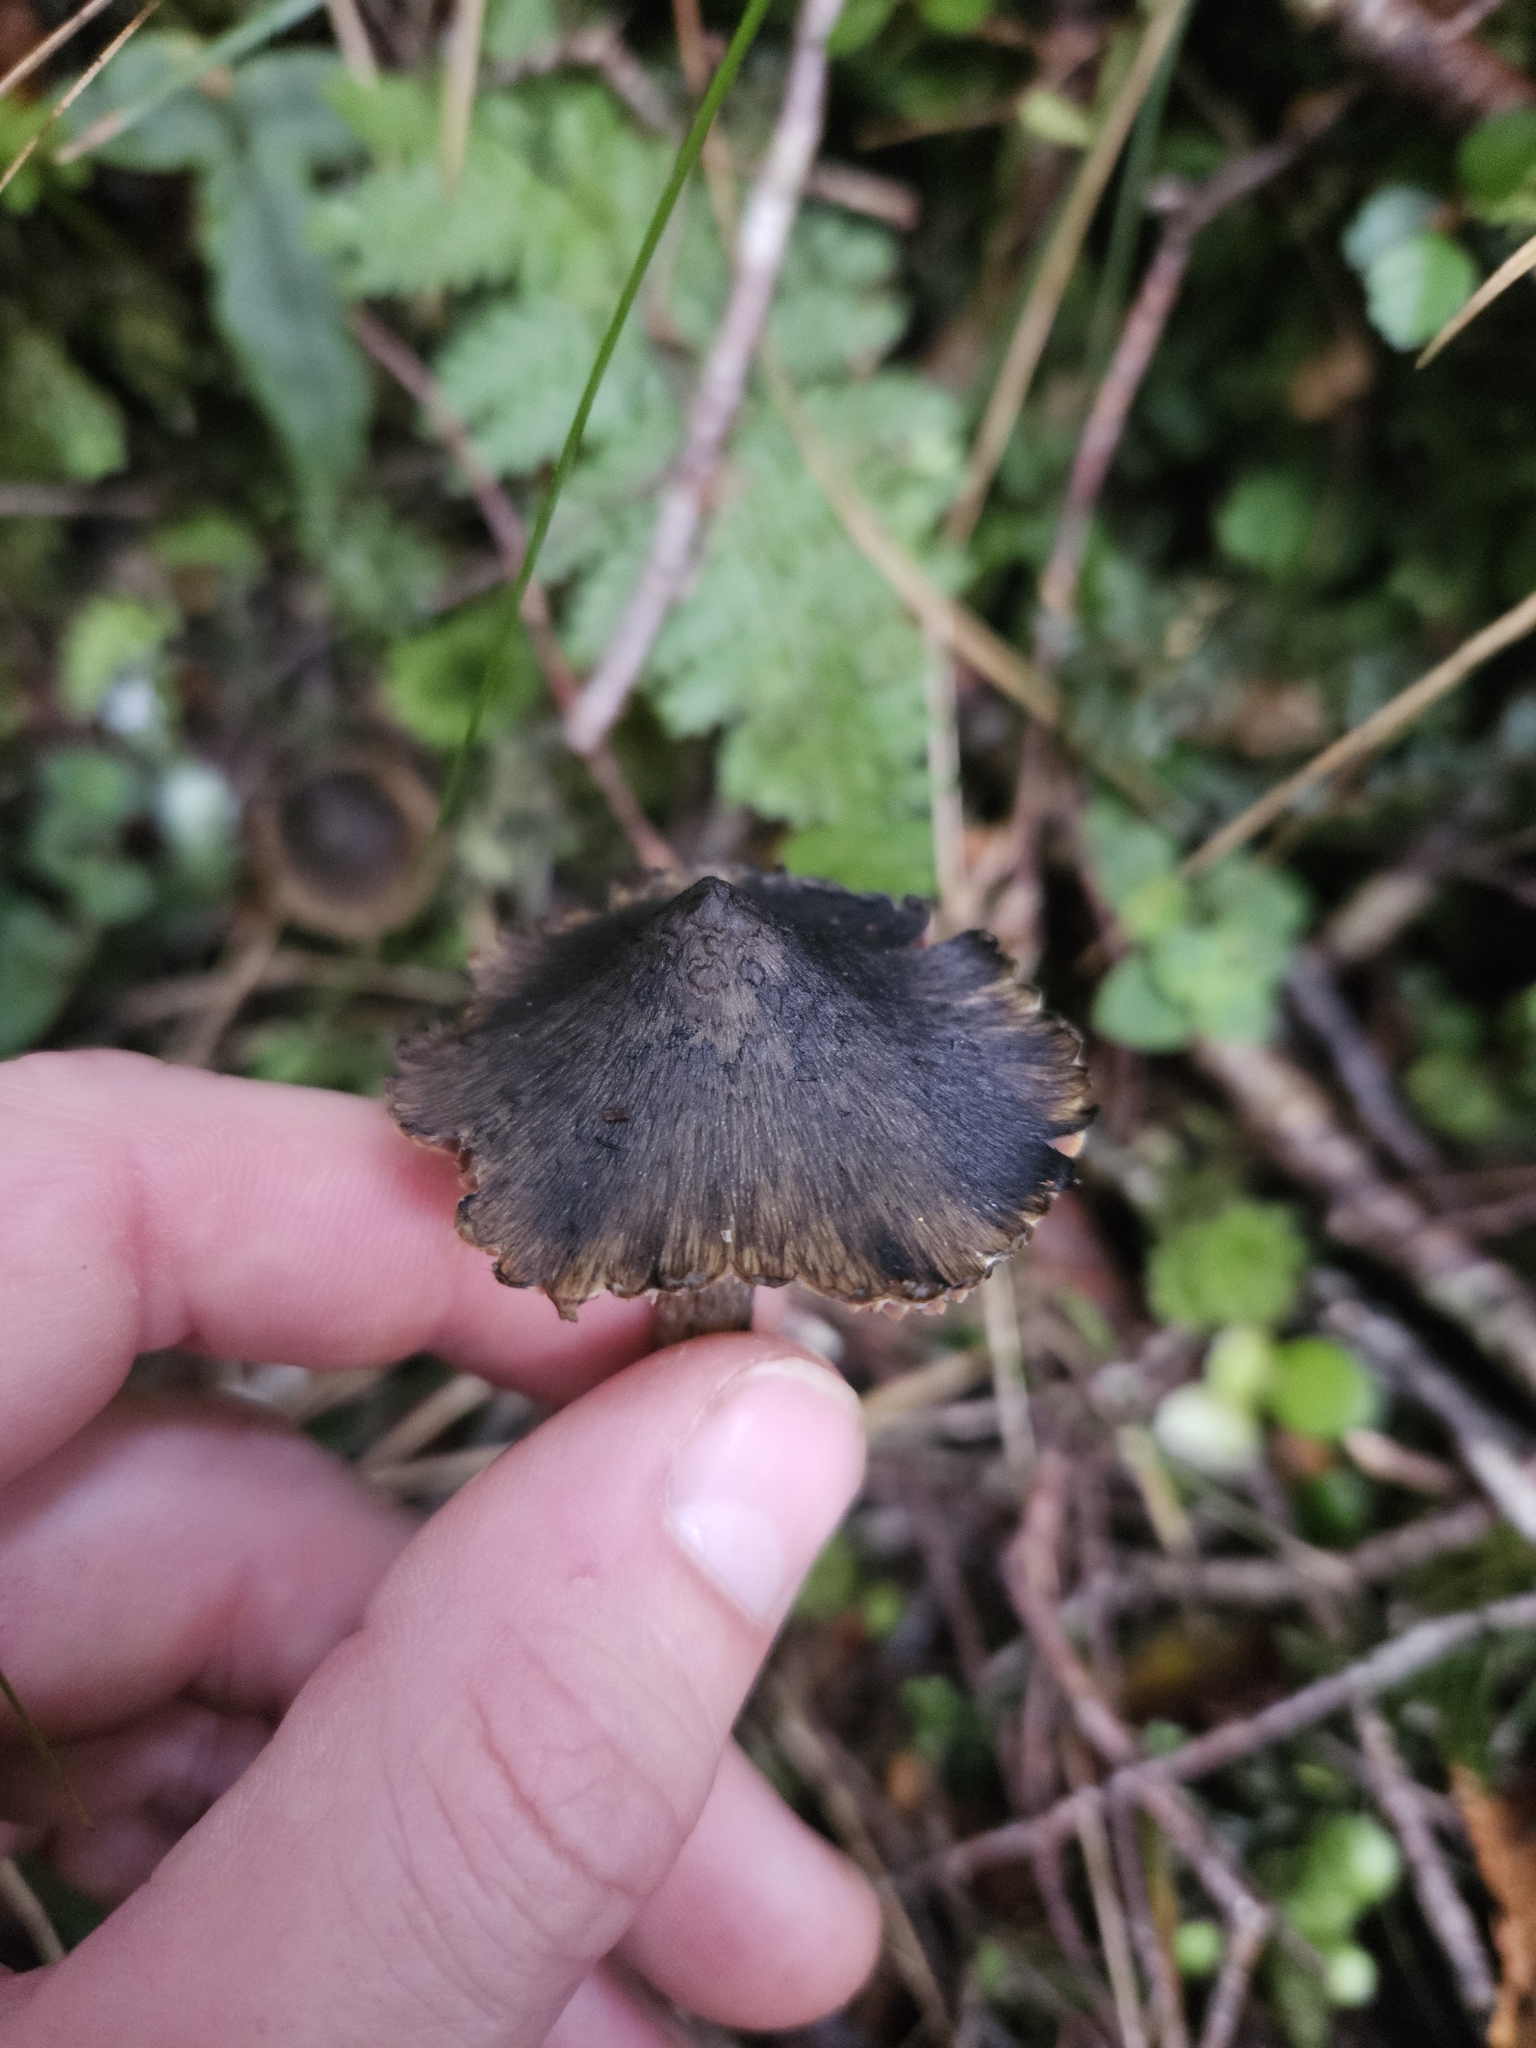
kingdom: Fungi
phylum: Basidiomycota
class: Agaricomycetes
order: Agaricales
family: Hygrophoraceae
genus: Hygrocybe
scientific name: Hygrocybe astatogala
